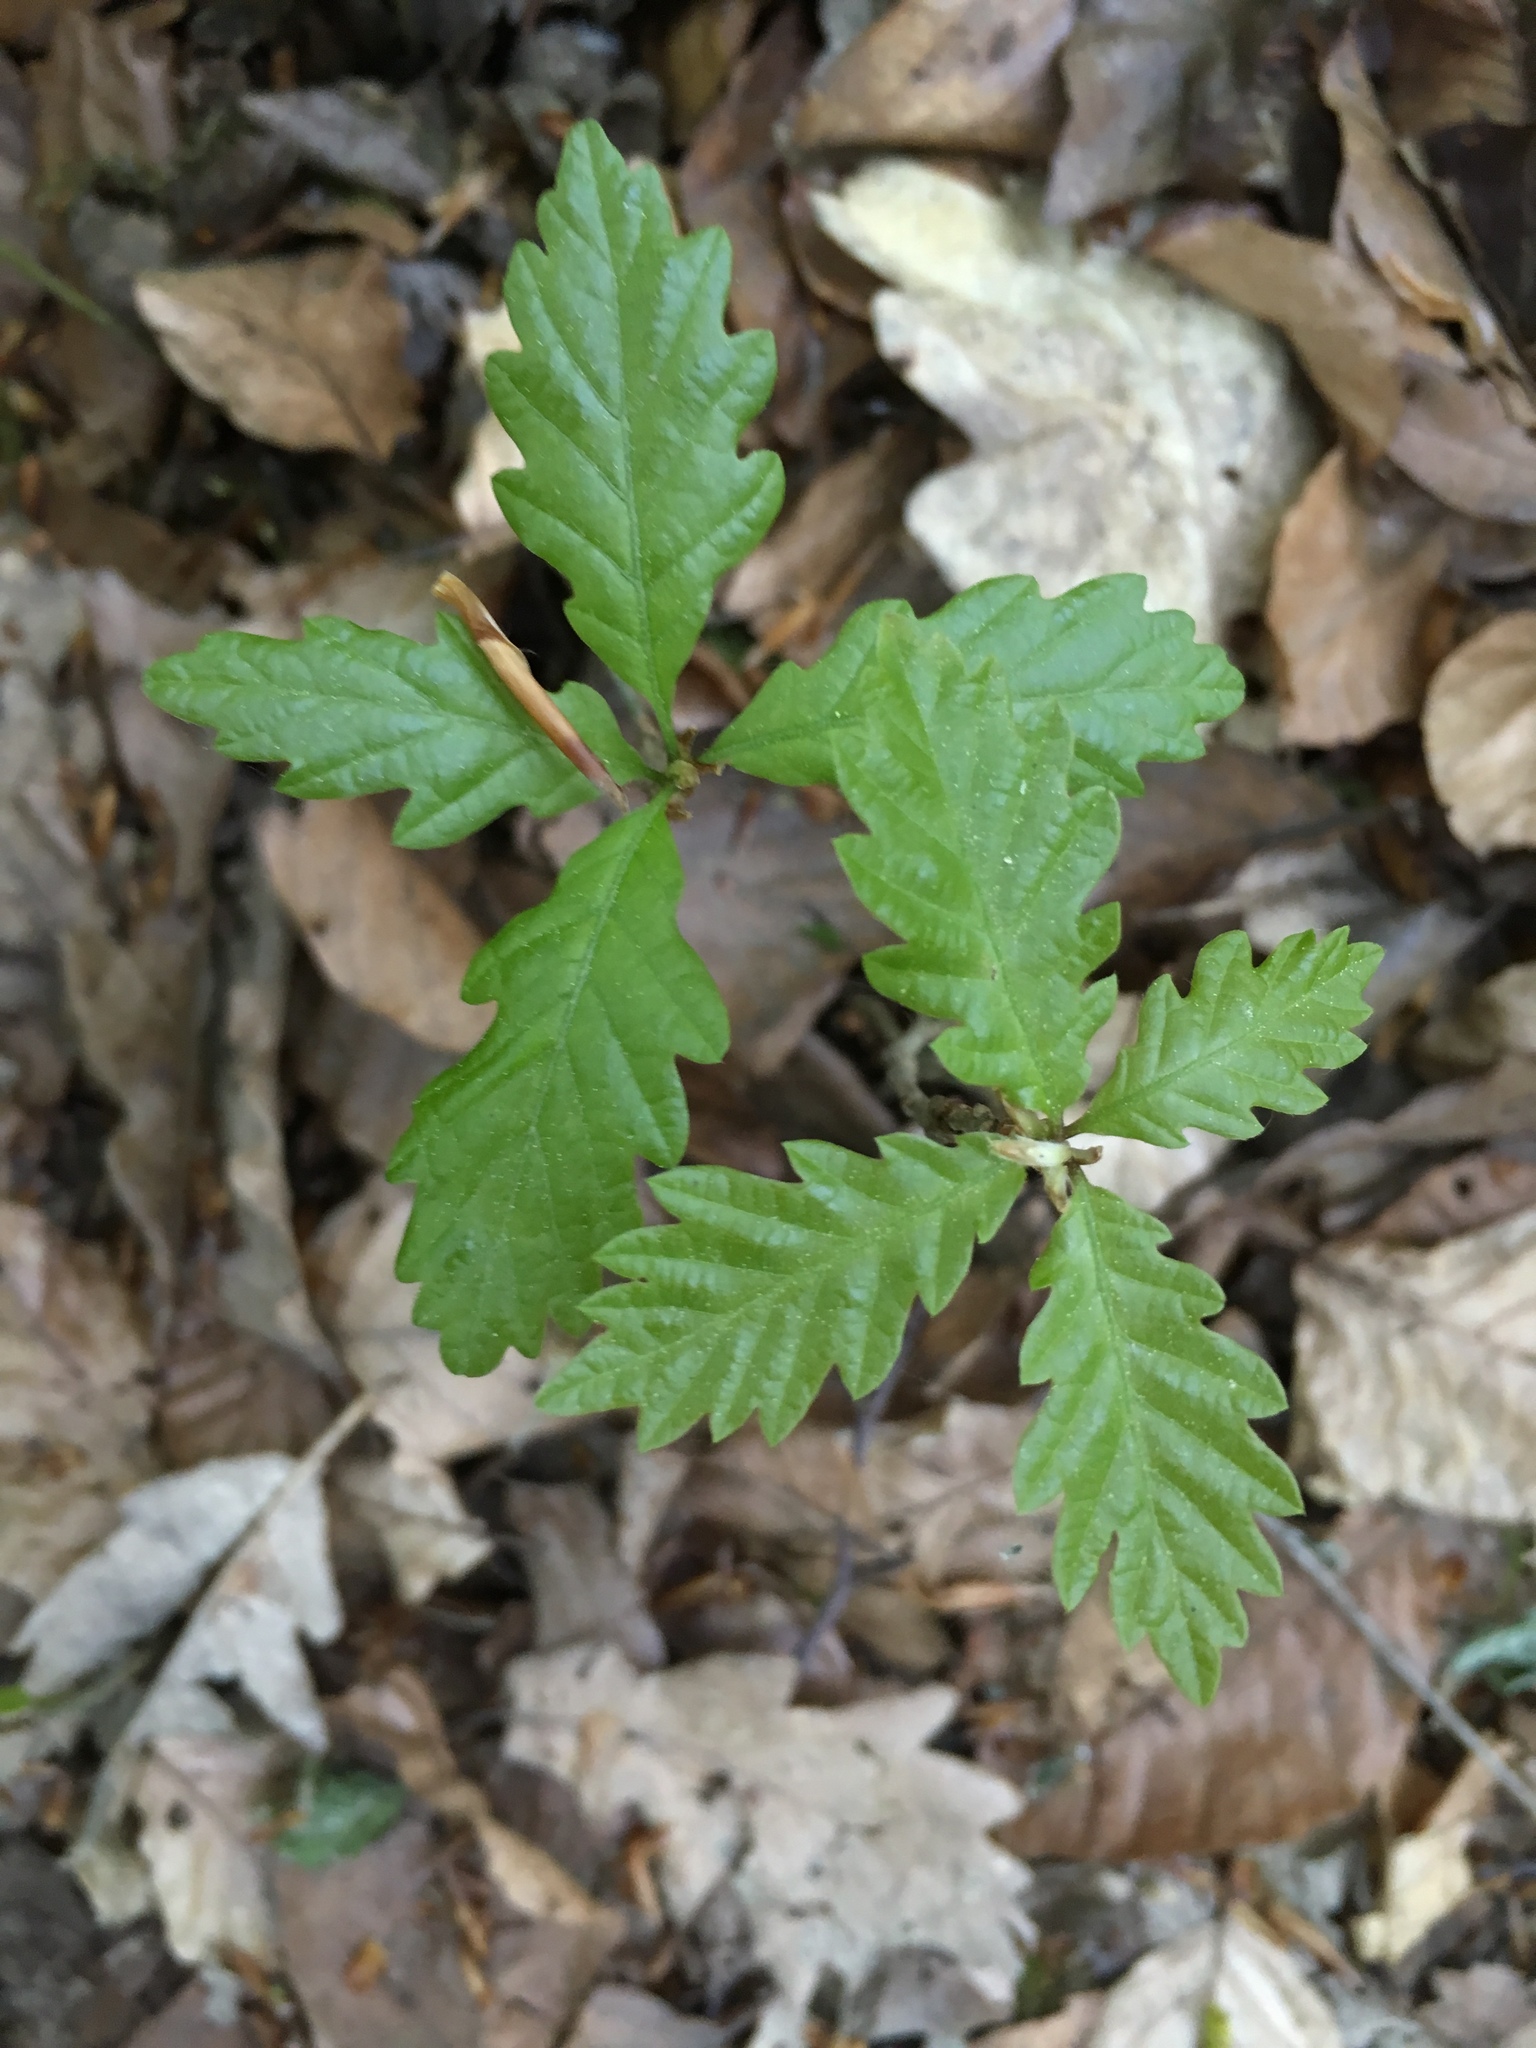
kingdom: Plantae
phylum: Tracheophyta
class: Magnoliopsida
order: Fagales
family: Fagaceae
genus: Quercus
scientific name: Quercus petraea
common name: Sessile oak
